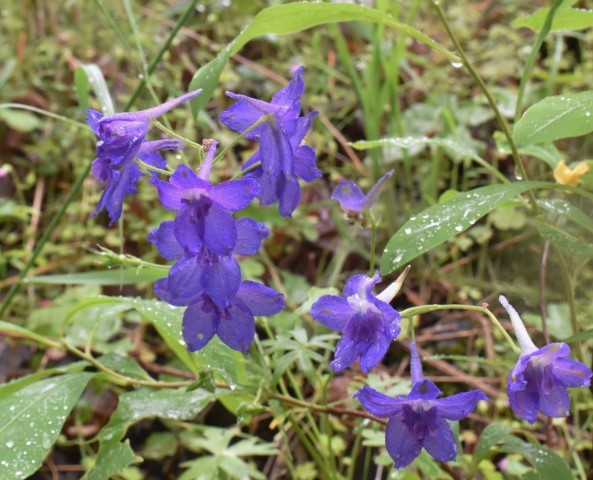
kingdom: Plantae
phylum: Tracheophyta
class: Magnoliopsida
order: Ranunculales
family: Ranunculaceae
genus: Delphinium
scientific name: Delphinium menziesii
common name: Menzies's larkspur
